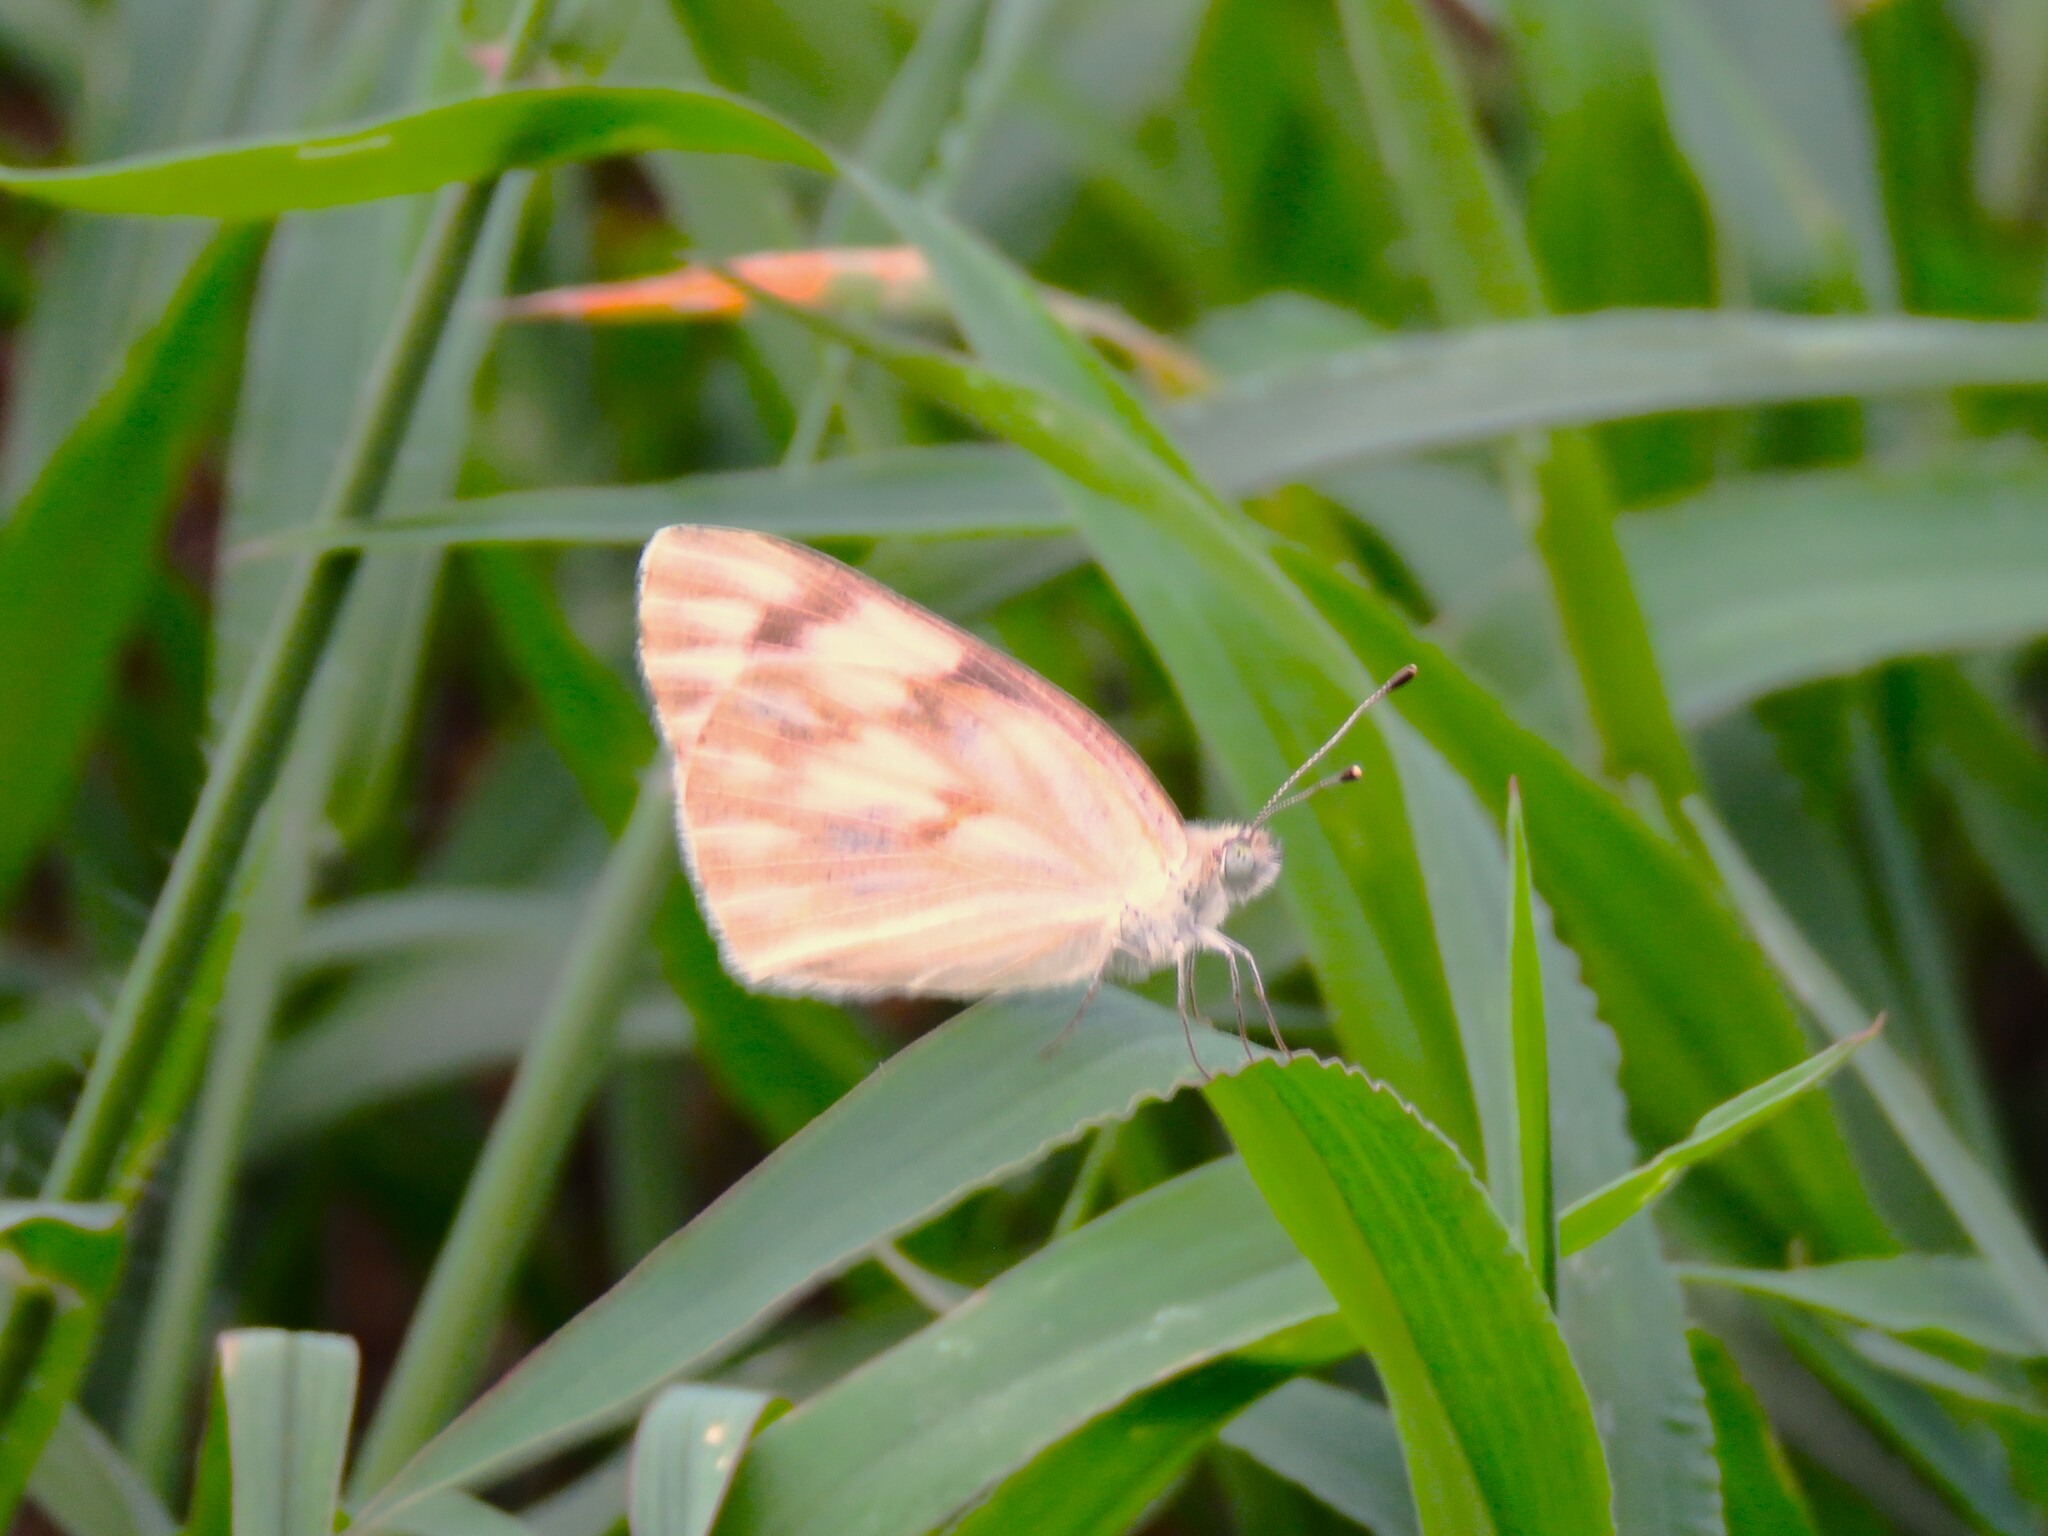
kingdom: Animalia
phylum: Arthropoda
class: Insecta
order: Lepidoptera
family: Pieridae
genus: Pontia
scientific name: Pontia protodice
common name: Checkered white
